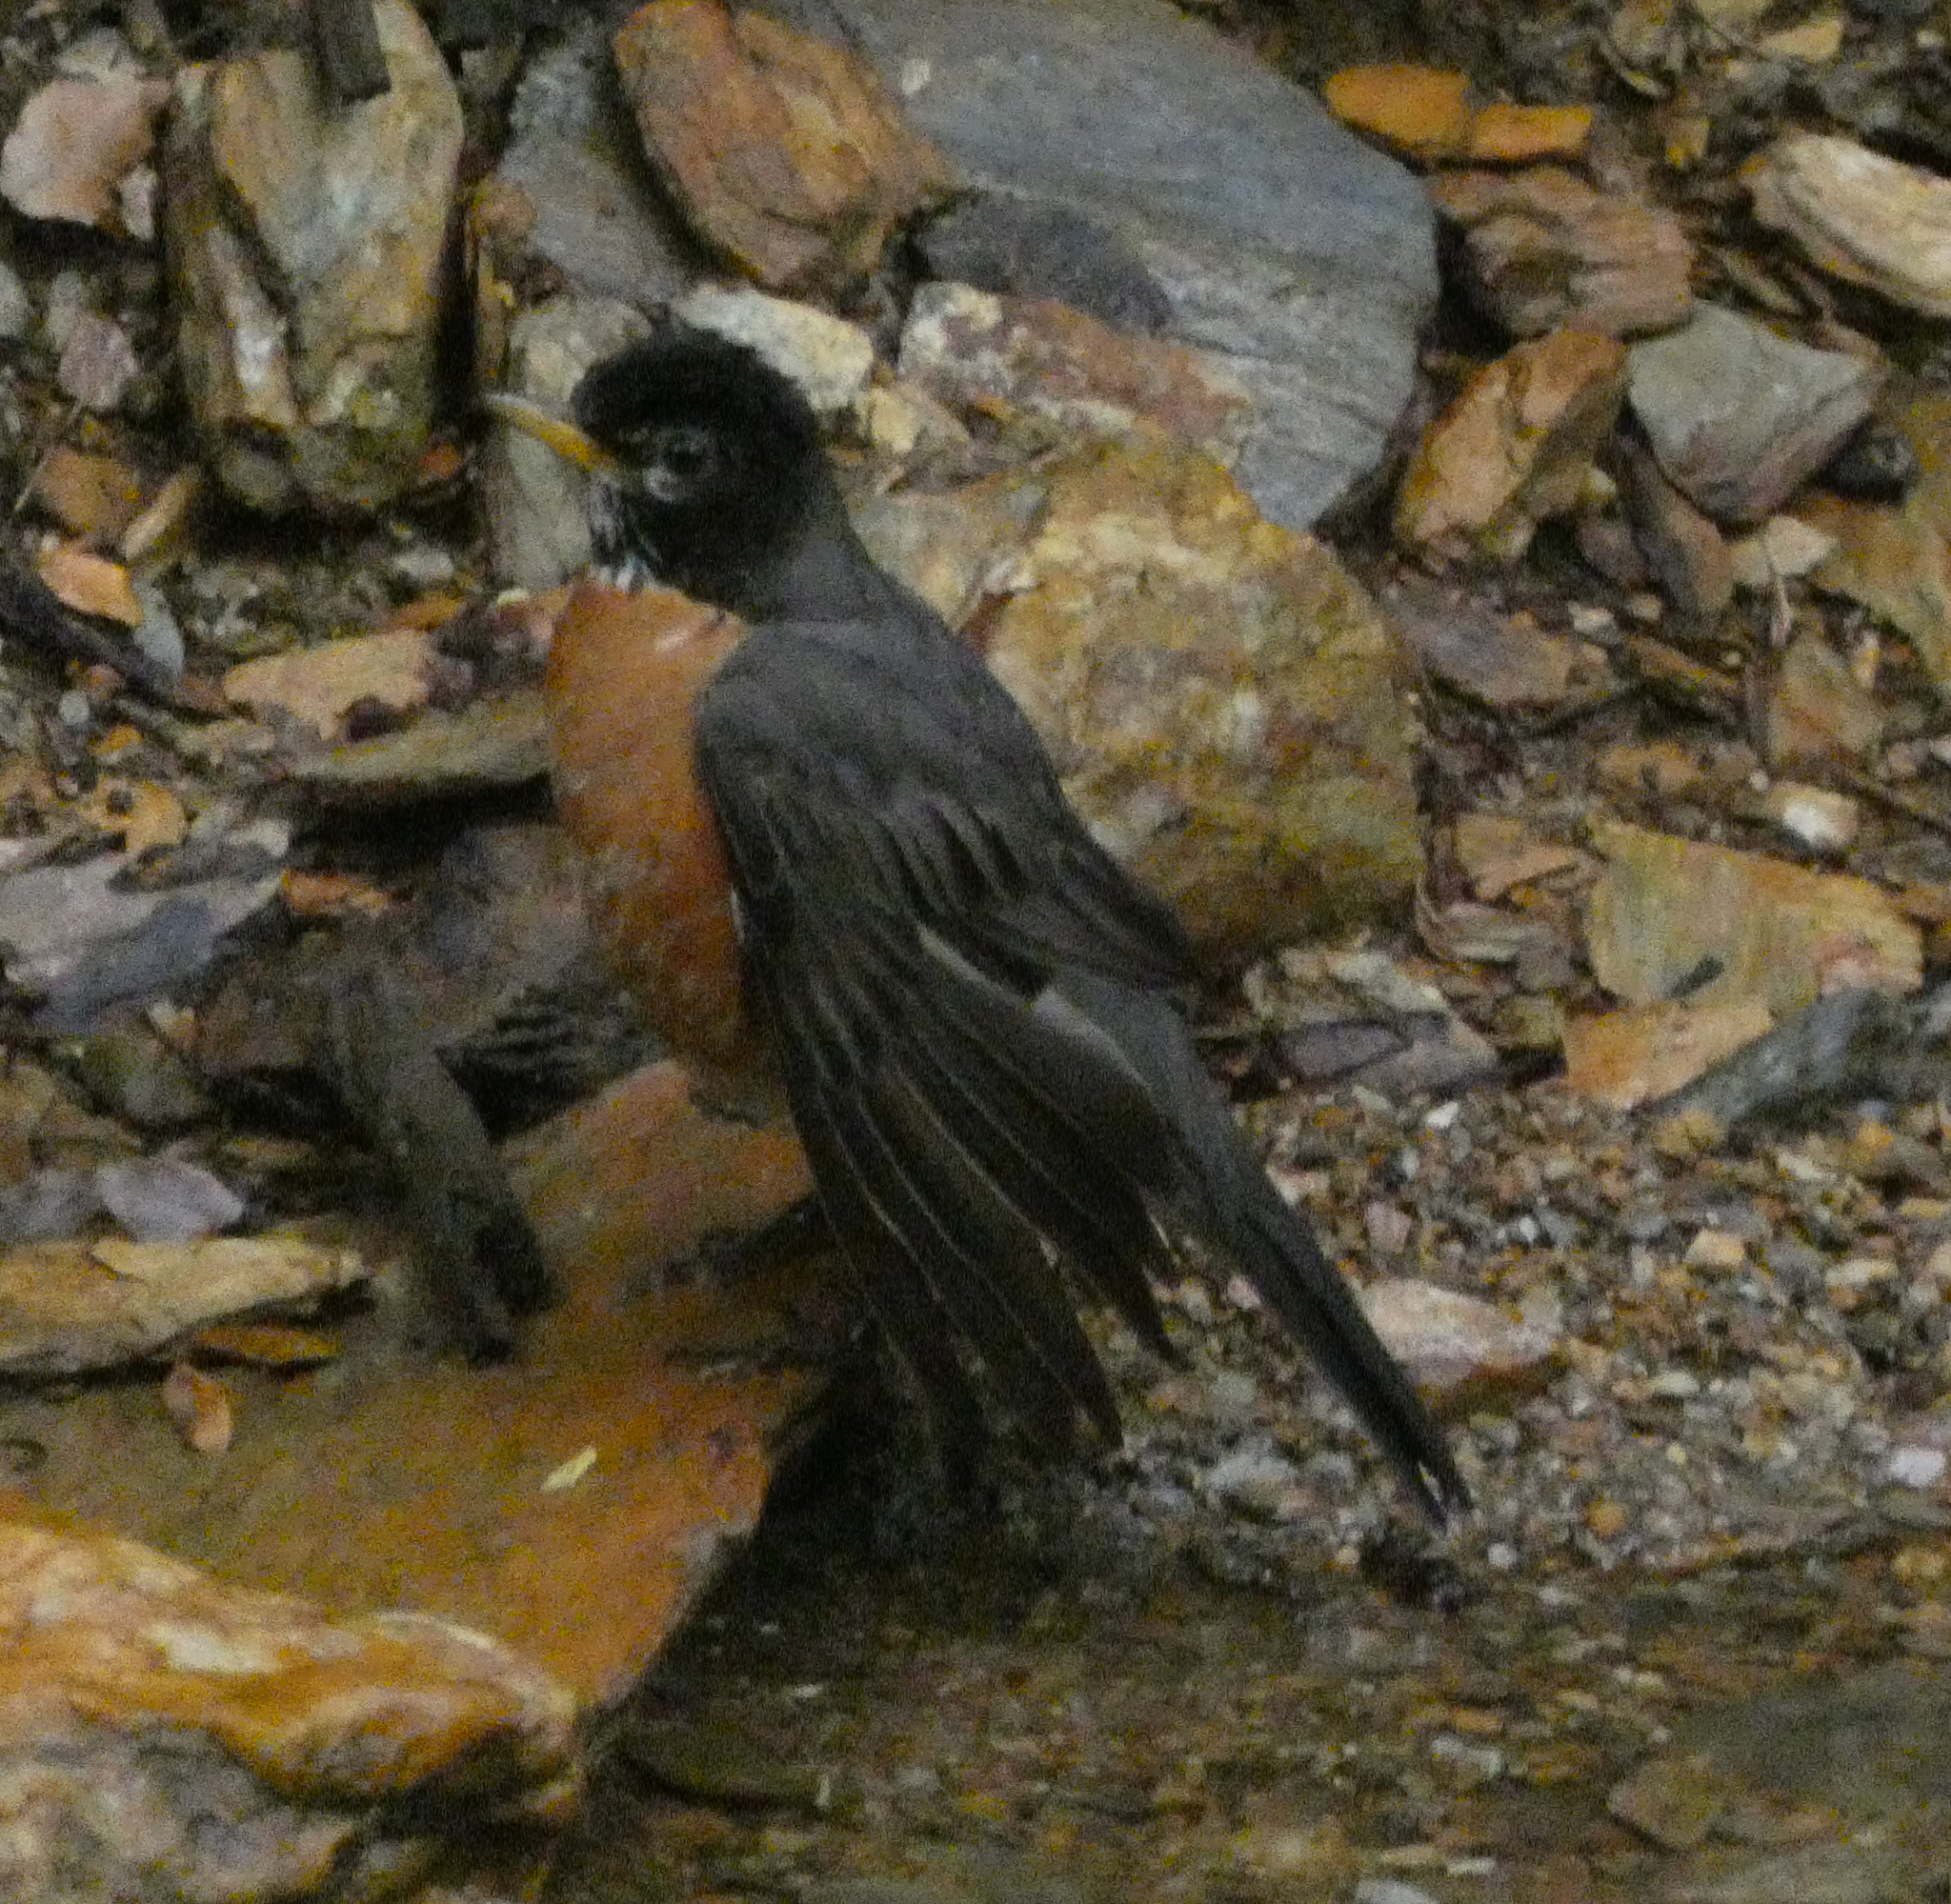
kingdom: Animalia
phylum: Chordata
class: Aves
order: Passeriformes
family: Turdidae
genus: Turdus
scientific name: Turdus migratorius
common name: American robin
